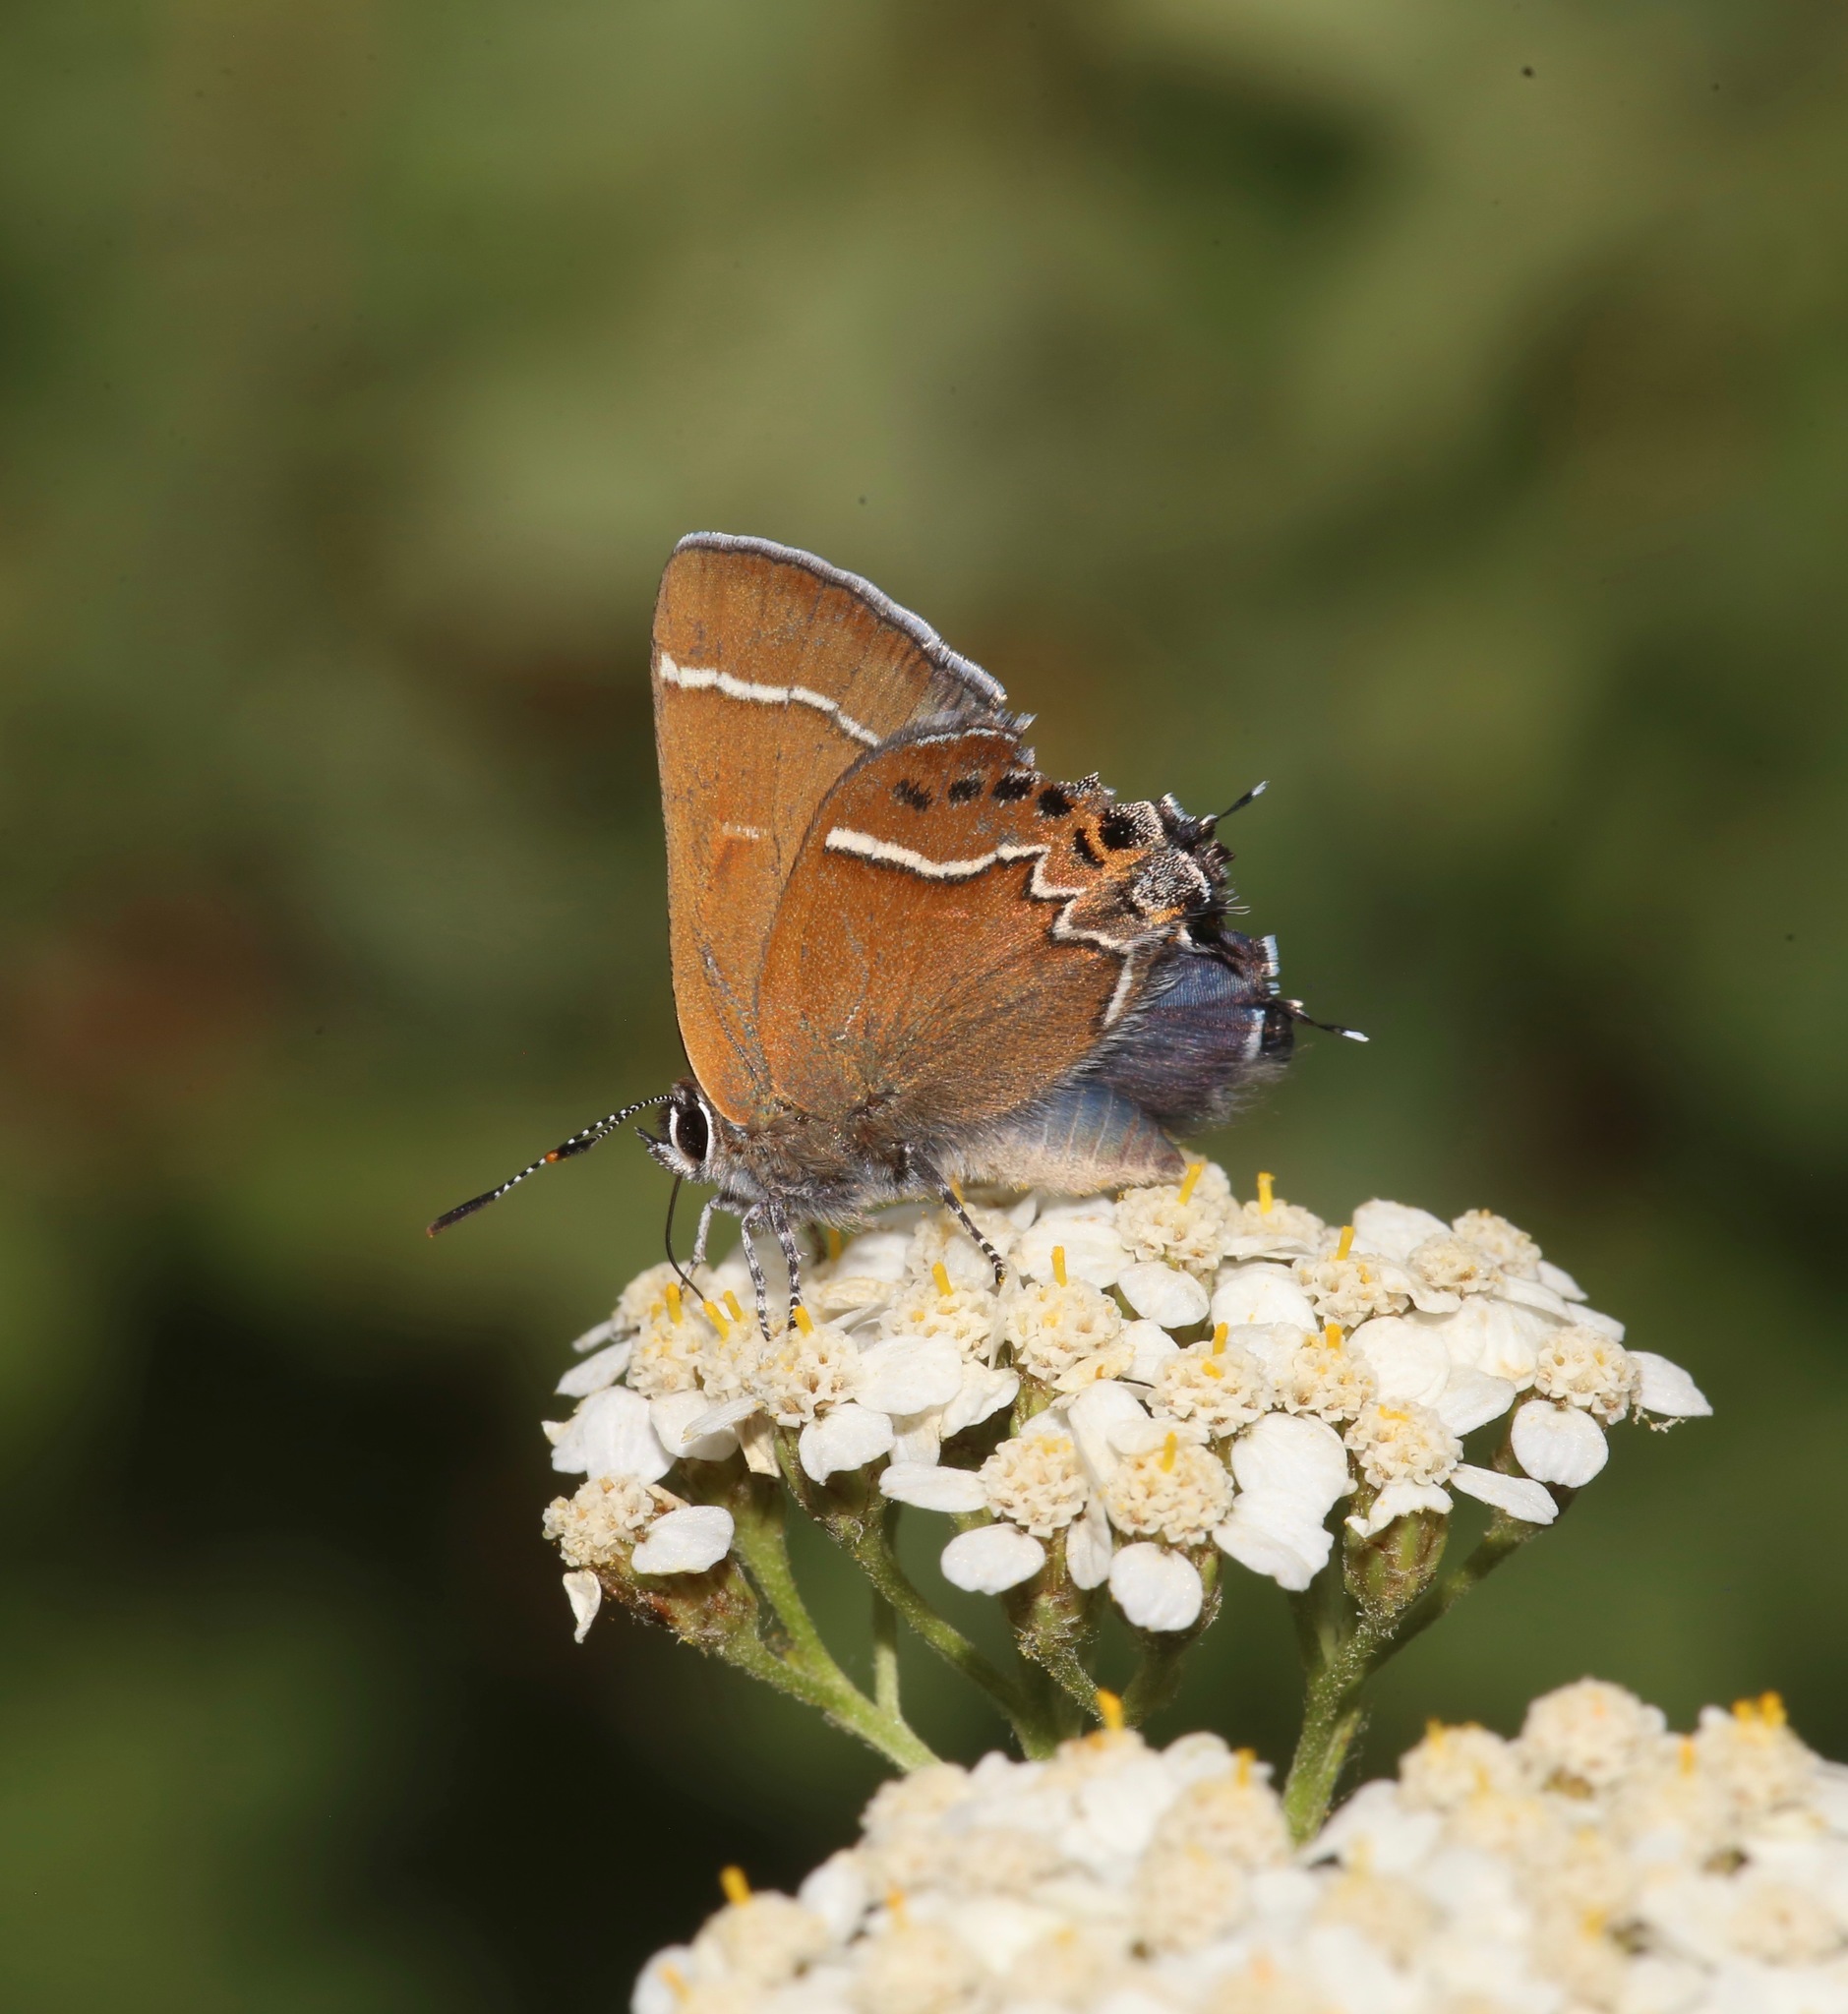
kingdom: Animalia
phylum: Arthropoda
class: Insecta
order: Lepidoptera
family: Lycaenidae
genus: Mitoura
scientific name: Mitoura spinetorum
